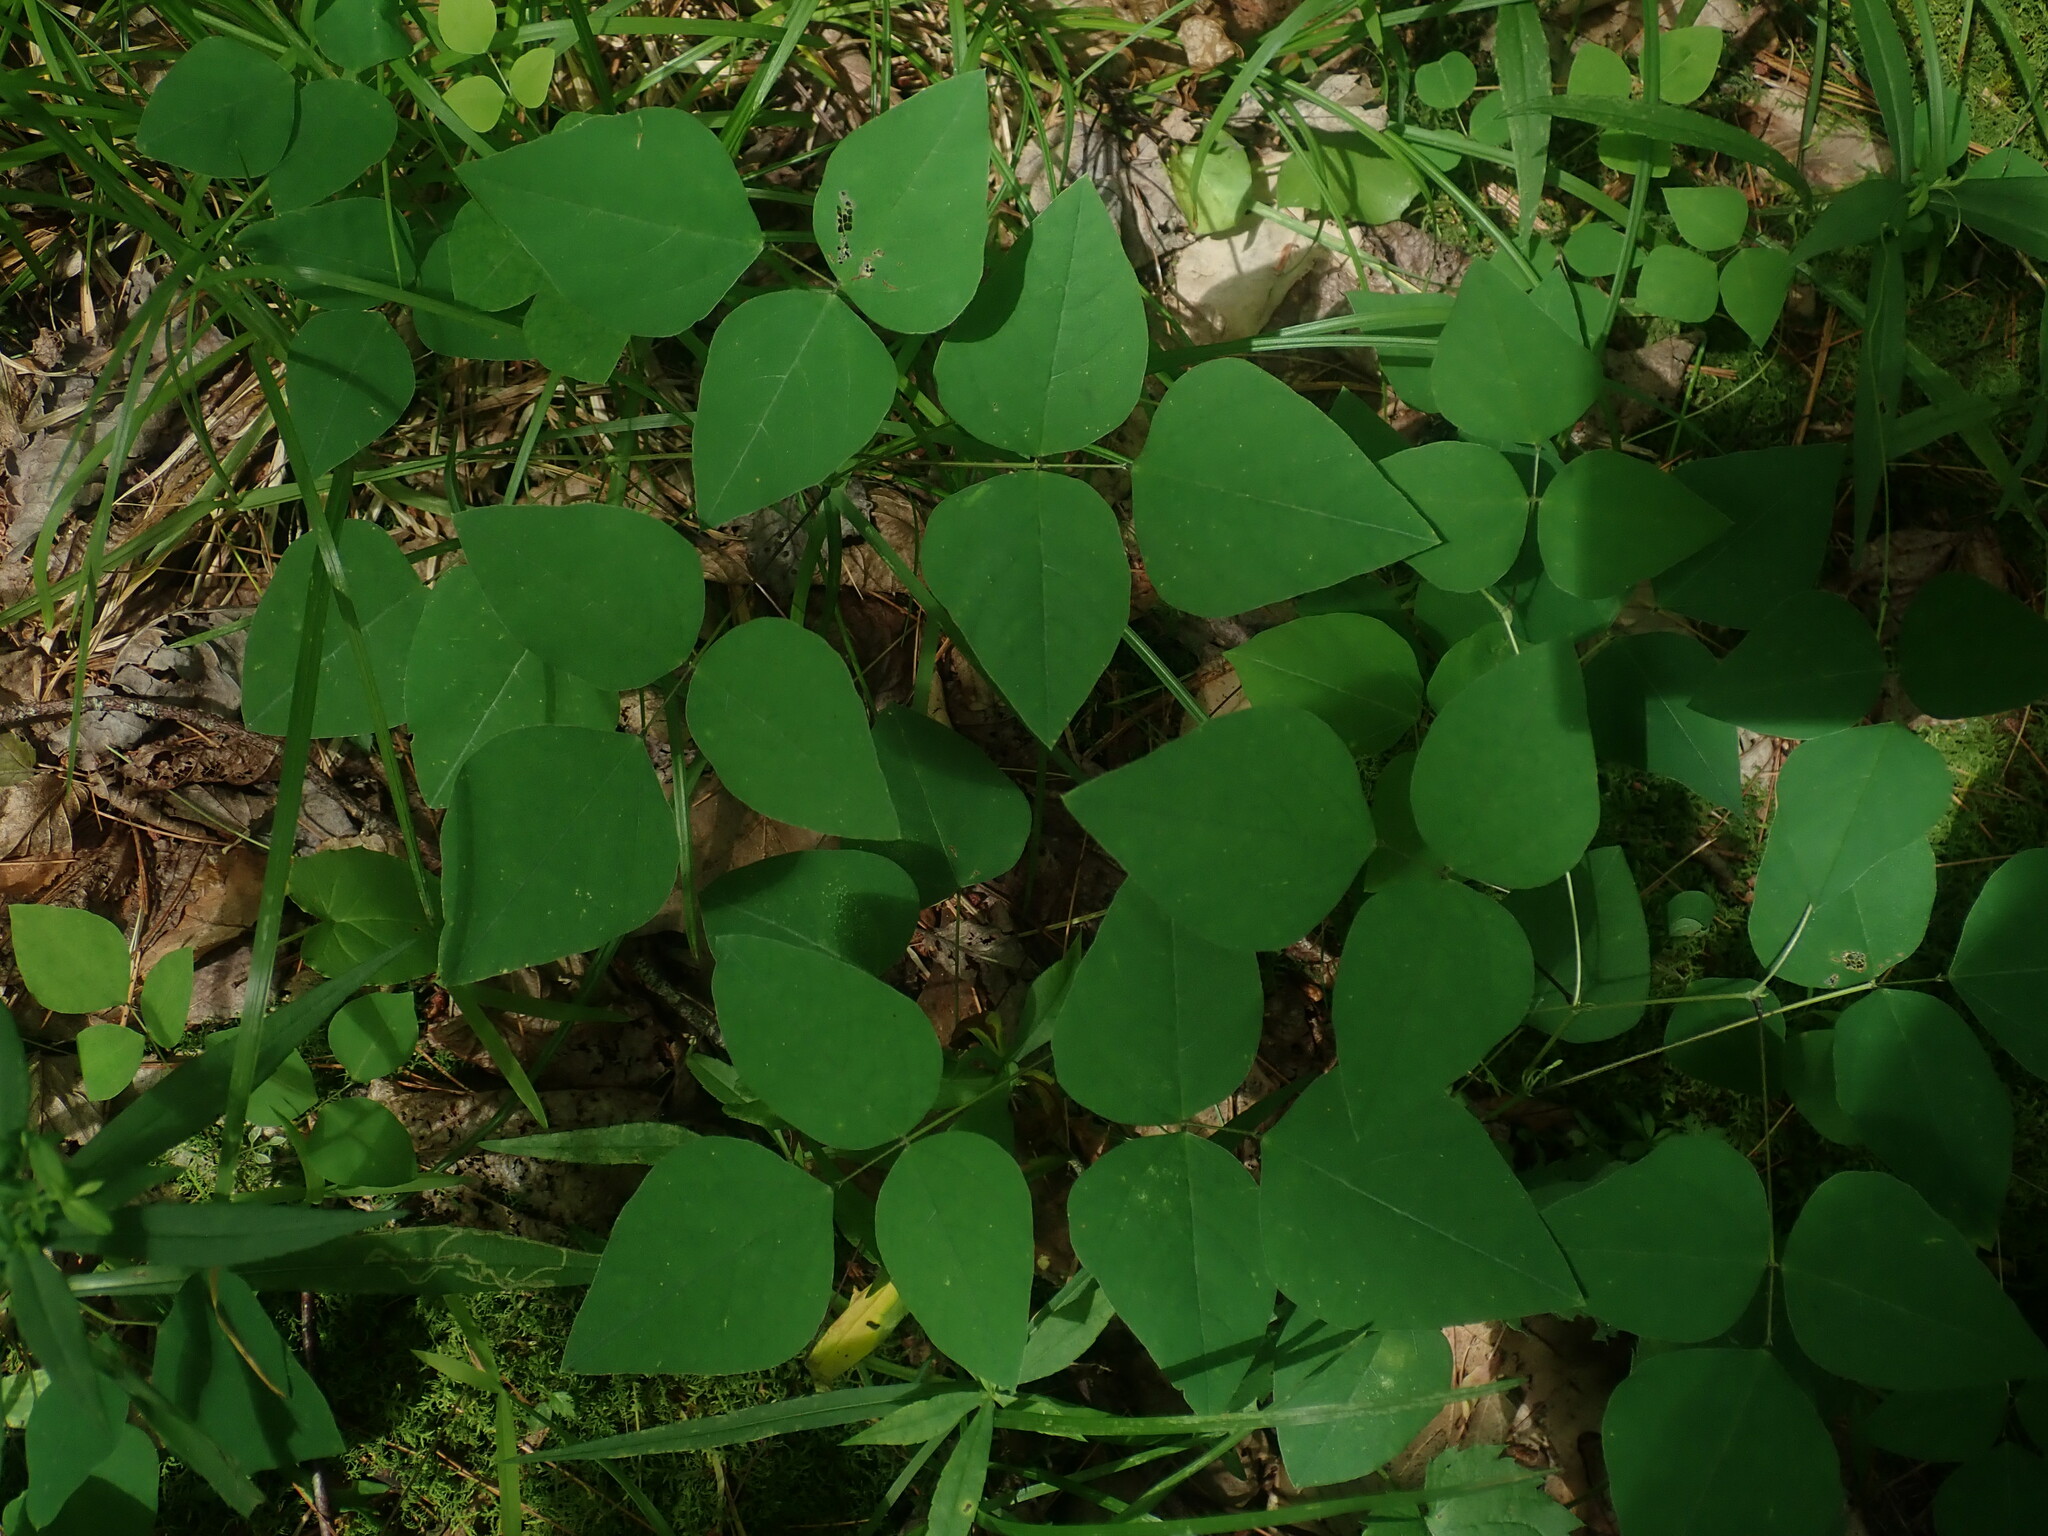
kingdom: Plantae
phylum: Tracheophyta
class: Magnoliopsida
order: Fabales
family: Fabaceae
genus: Amphicarpaea
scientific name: Amphicarpaea bracteata
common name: American hog peanut
